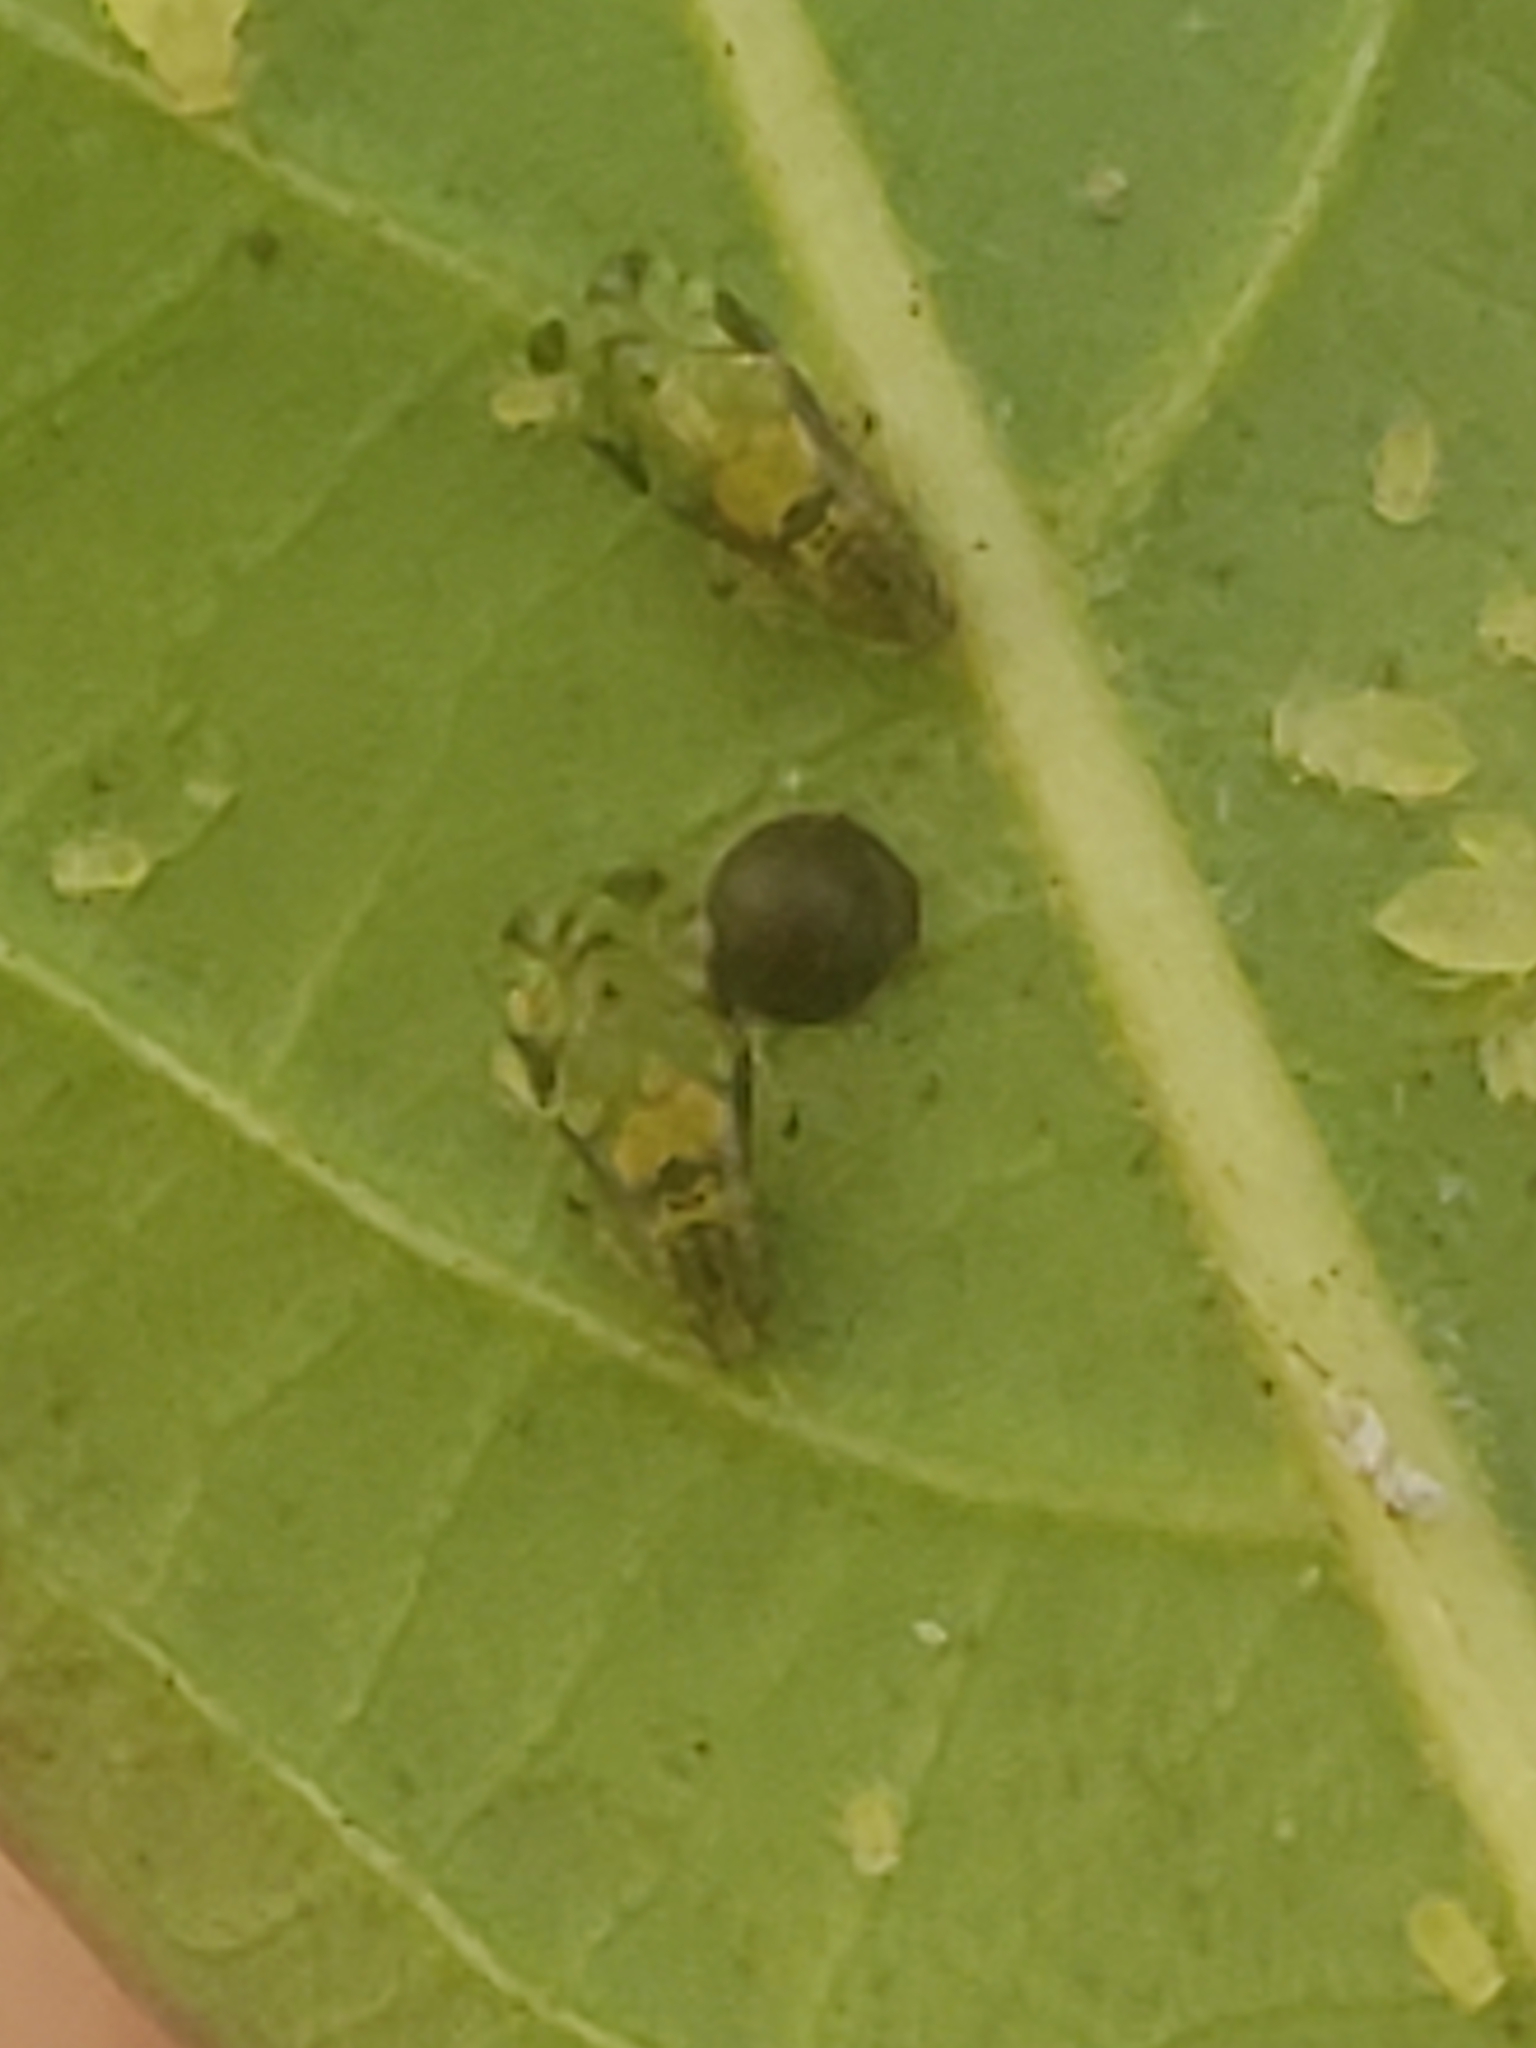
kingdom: Animalia
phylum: Arthropoda
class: Insecta
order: Hemiptera
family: Aphididae
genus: Sarucallis
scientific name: Sarucallis kahawaluokalani
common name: Crapemyrtle aphid
